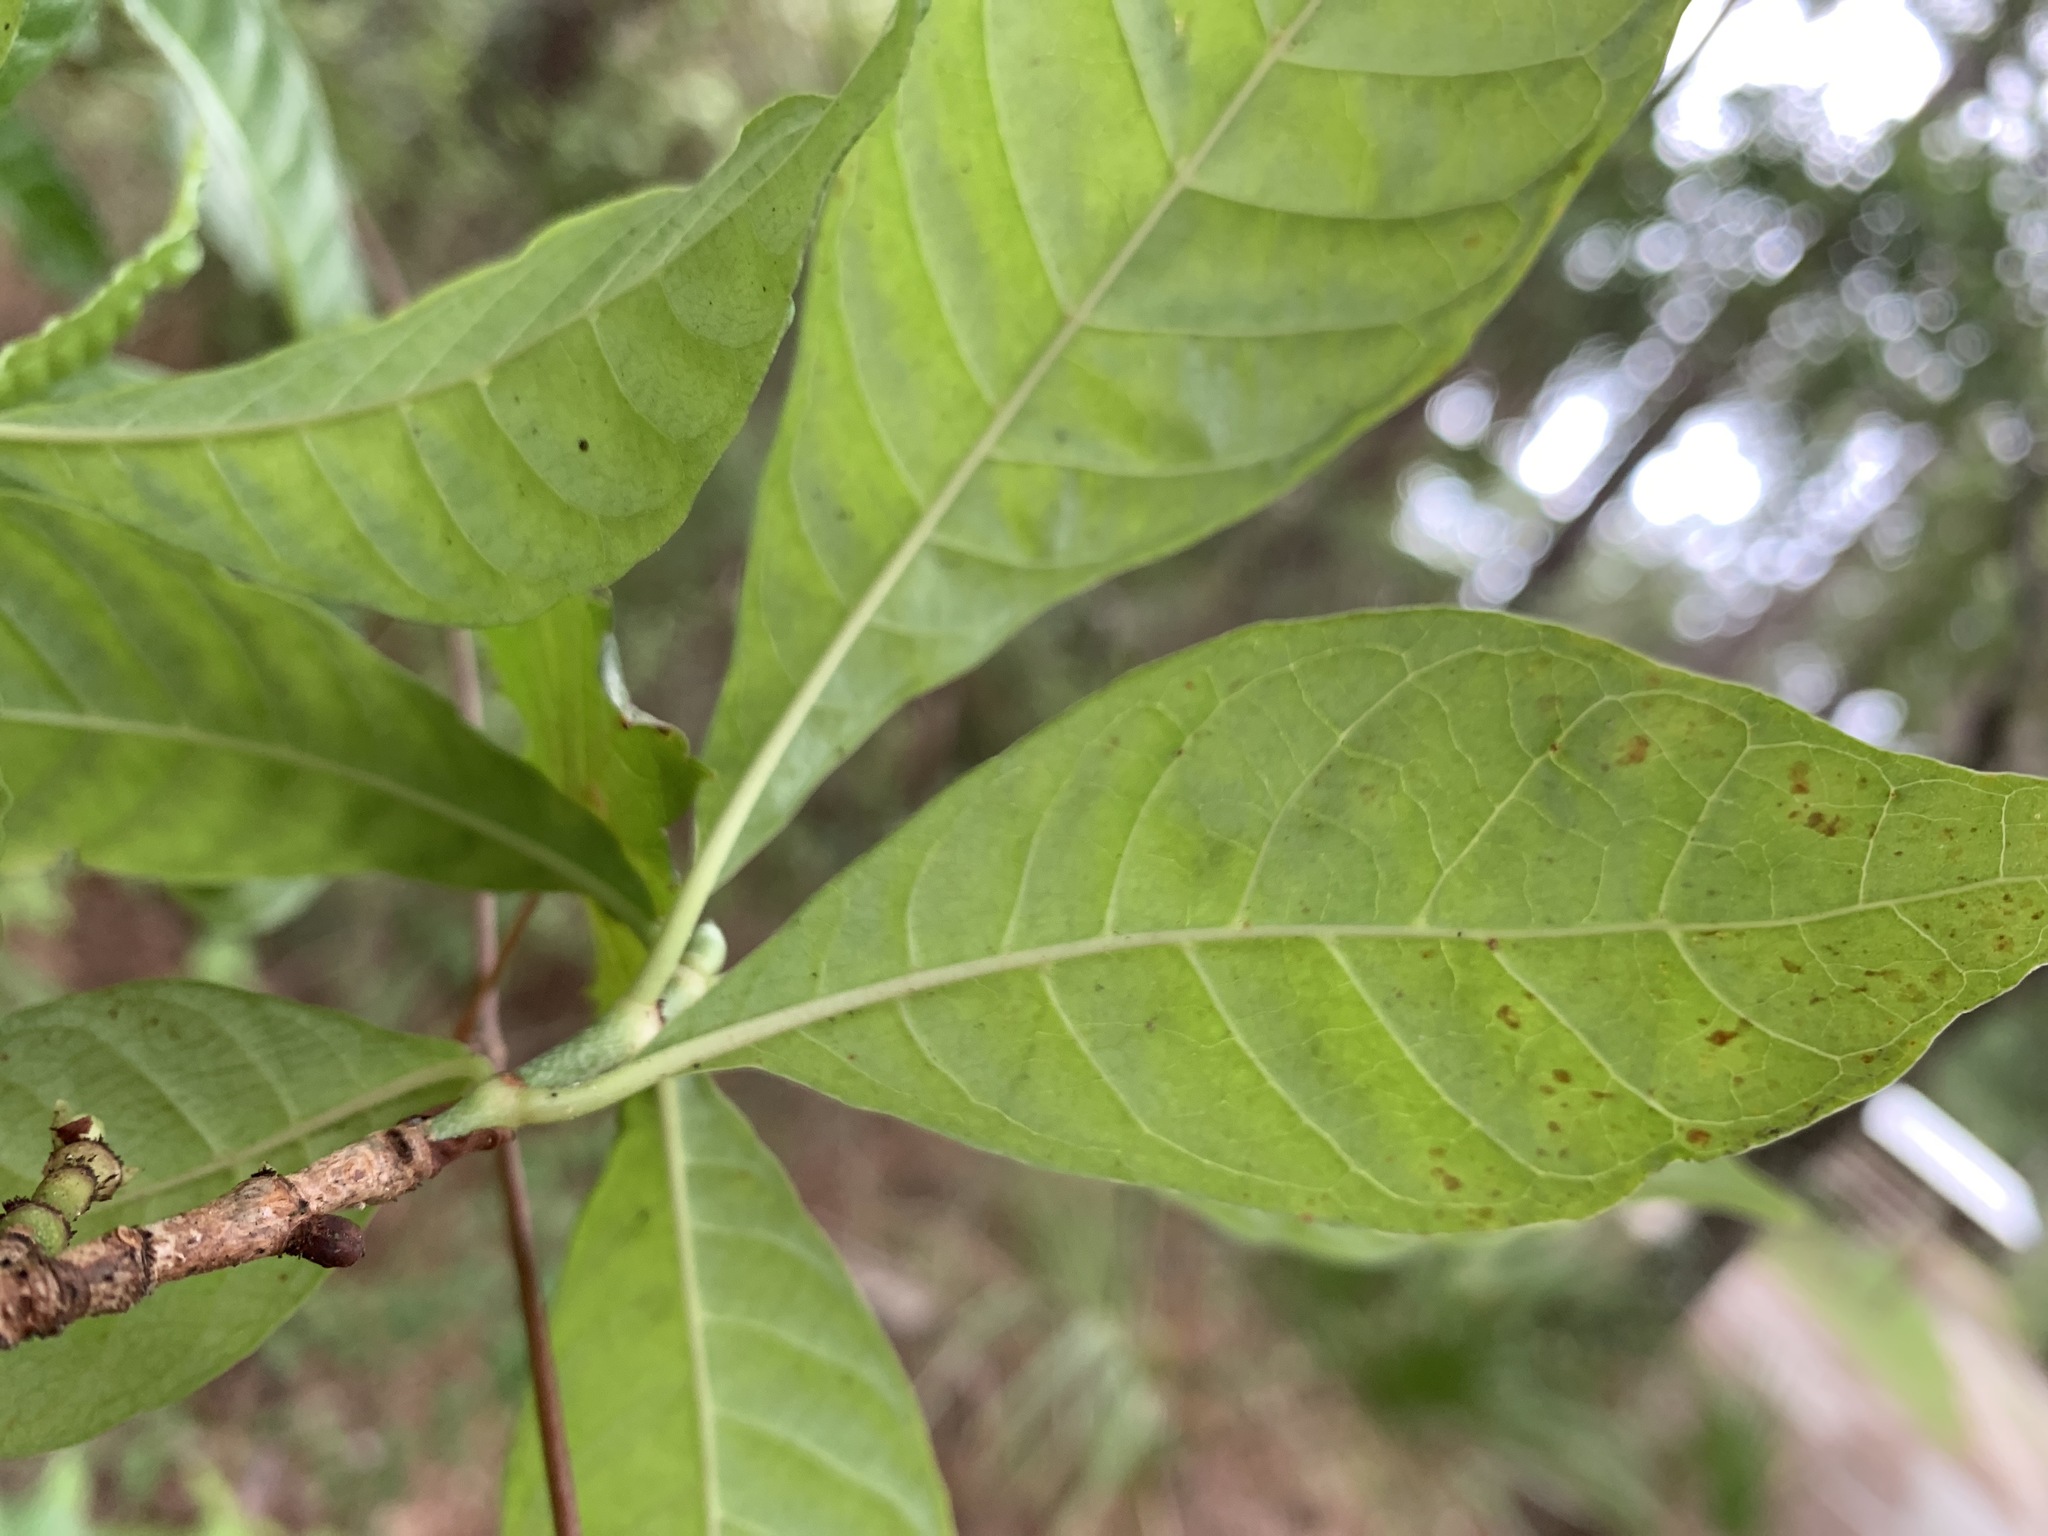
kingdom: Plantae
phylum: Tracheophyta
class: Magnoliopsida
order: Gentianales
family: Rubiaceae
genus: Psychotria
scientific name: Psychotria nervosa
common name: Bastard cankerberry
